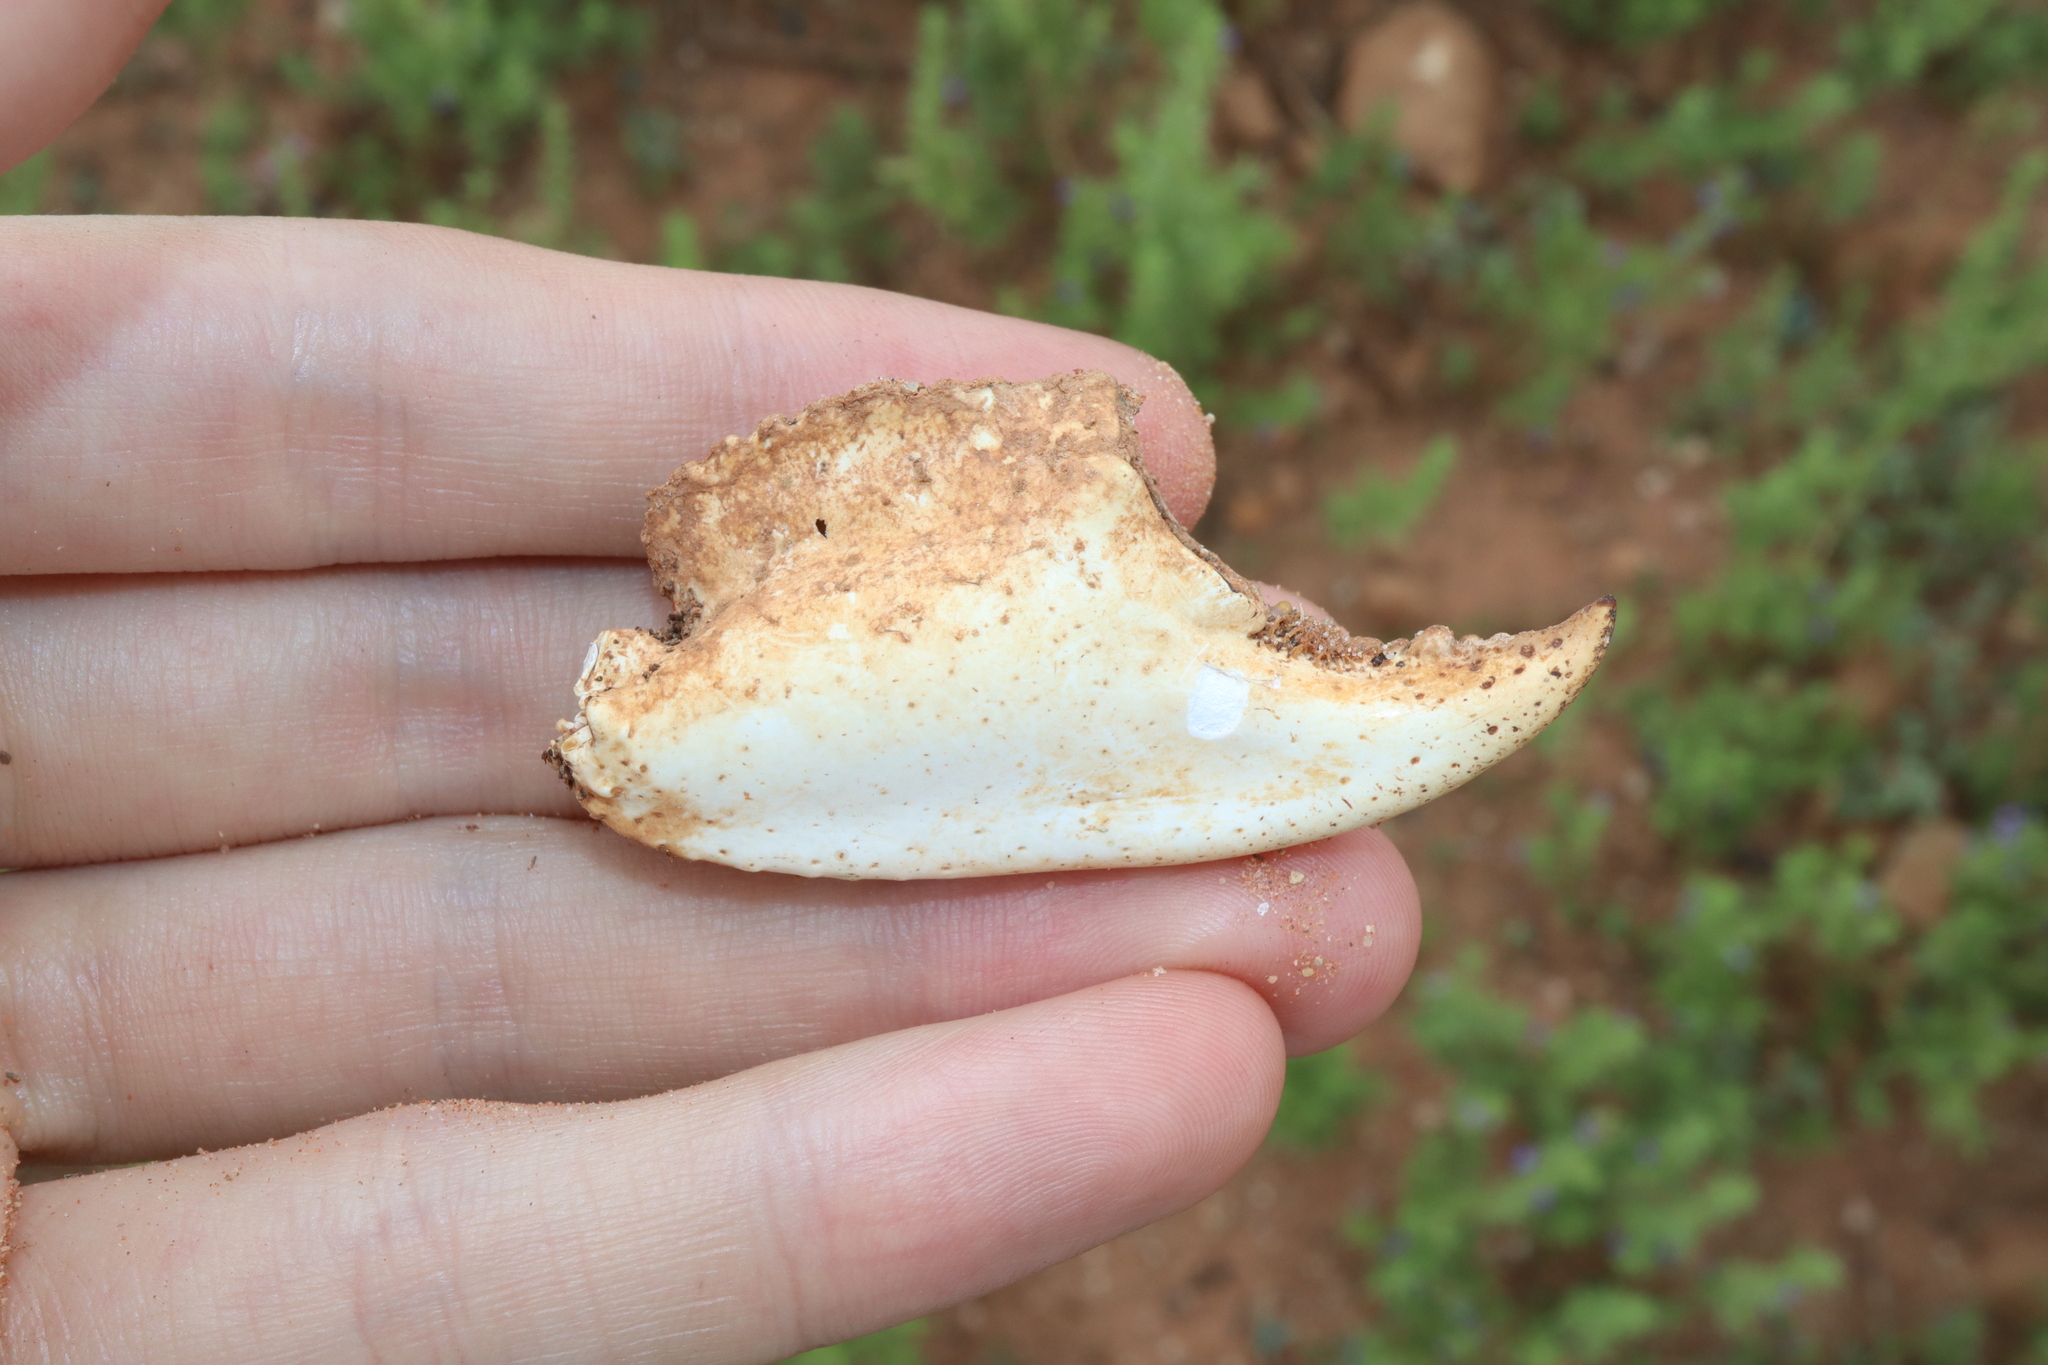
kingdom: Animalia
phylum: Arthropoda
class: Malacostraca
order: Decapoda
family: Parastacidae
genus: Cherax
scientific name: Cherax destructor
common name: Yabby
